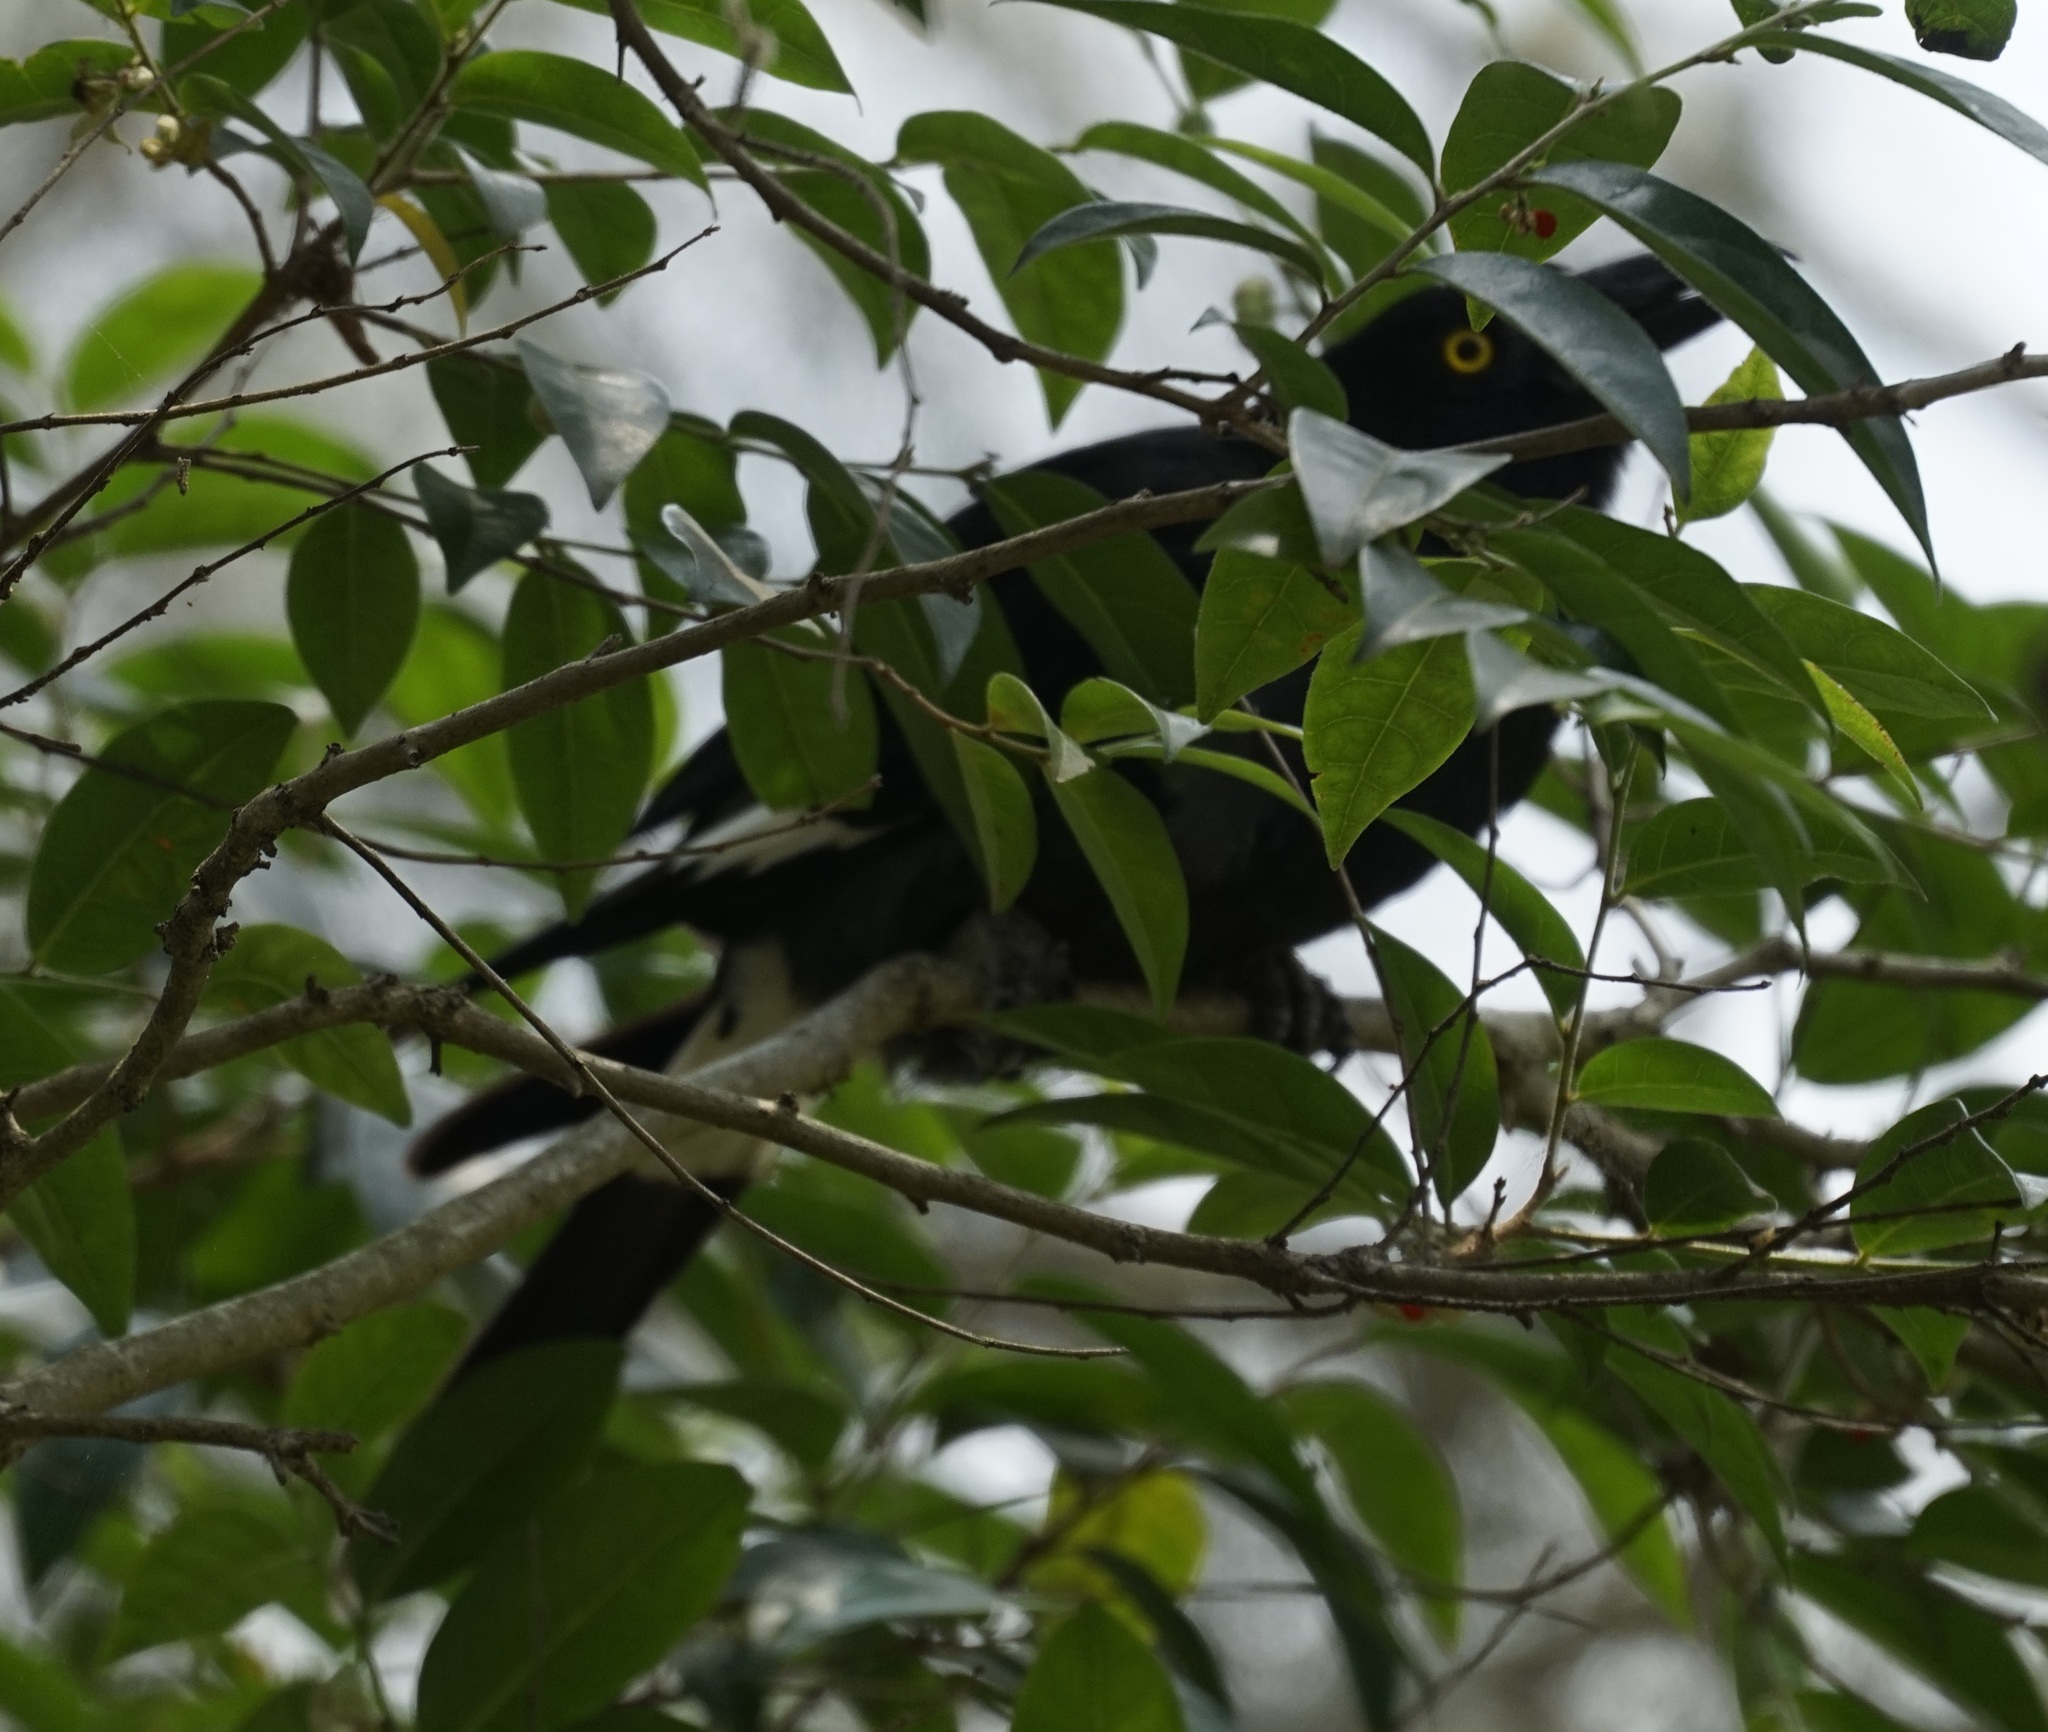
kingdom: Animalia
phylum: Chordata
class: Aves
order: Passeriformes
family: Cracticidae
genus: Strepera
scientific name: Strepera graculina
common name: Pied currawong
